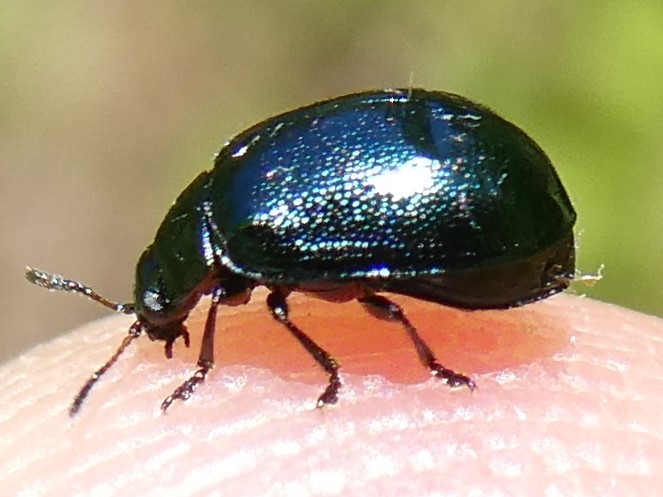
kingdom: Animalia
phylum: Arthropoda
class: Insecta
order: Coleoptera
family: Chrysomelidae
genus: Plagiodera
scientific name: Plagiodera versicolora
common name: Imported willow leaf beetle
